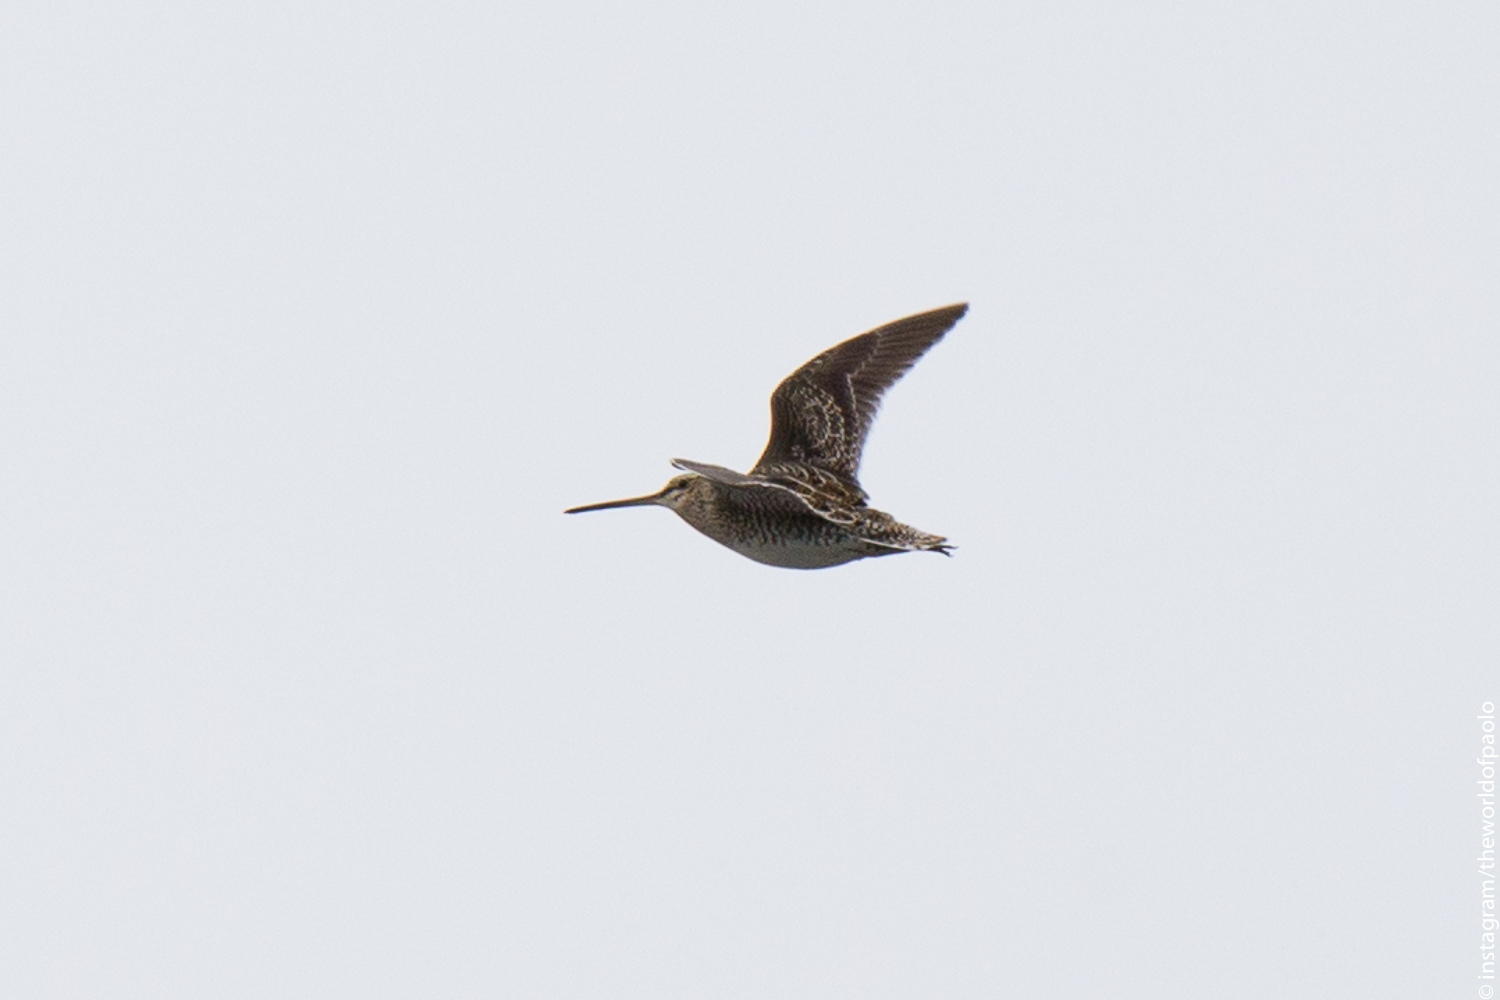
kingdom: Animalia
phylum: Chordata
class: Aves
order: Charadriiformes
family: Scolopacidae
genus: Gallinago
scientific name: Gallinago gallinago
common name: Common snipe
